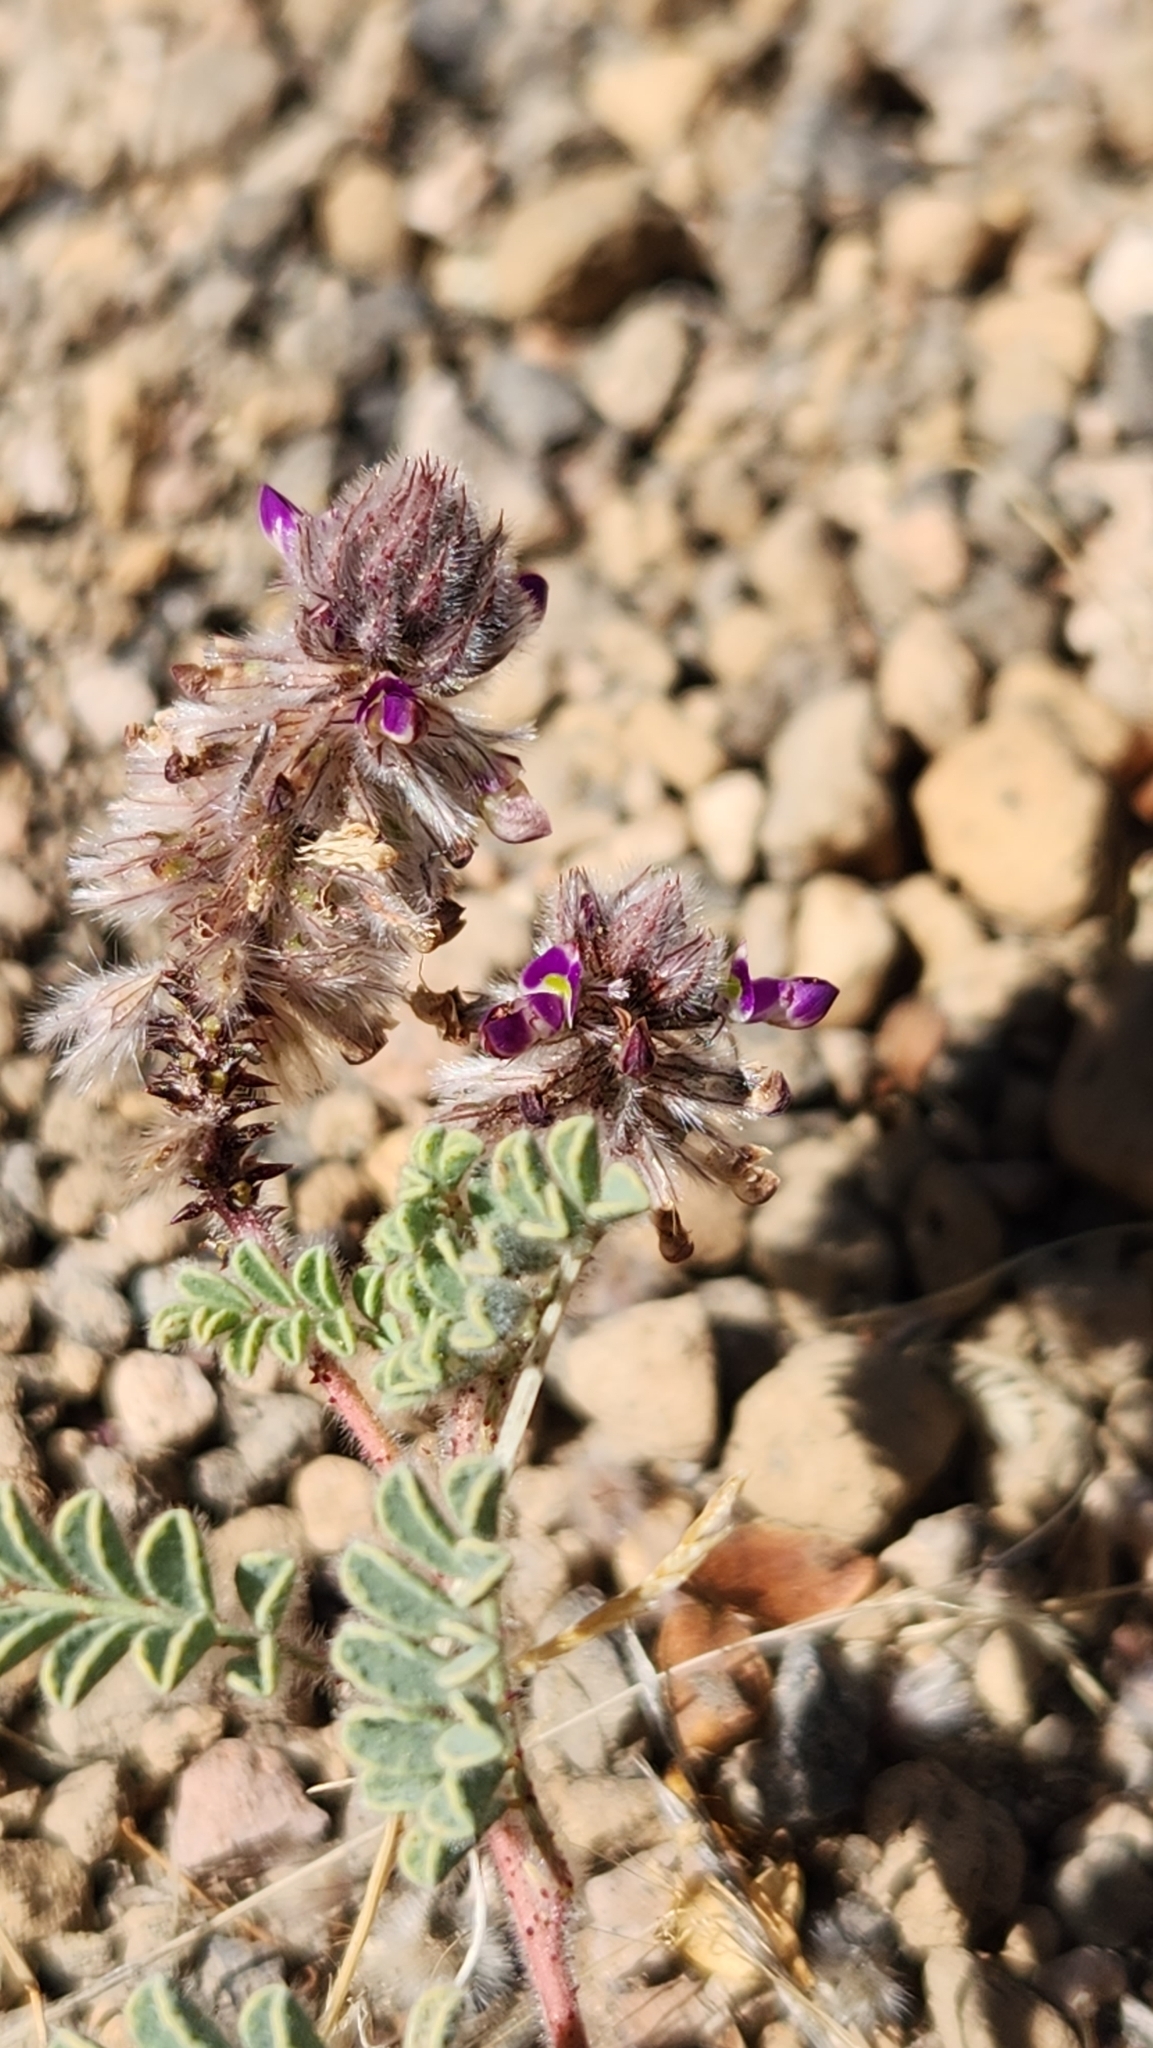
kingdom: Plantae
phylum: Tracheophyta
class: Magnoliopsida
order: Fabales
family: Fabaceae
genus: Dalea
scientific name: Dalea mollis
